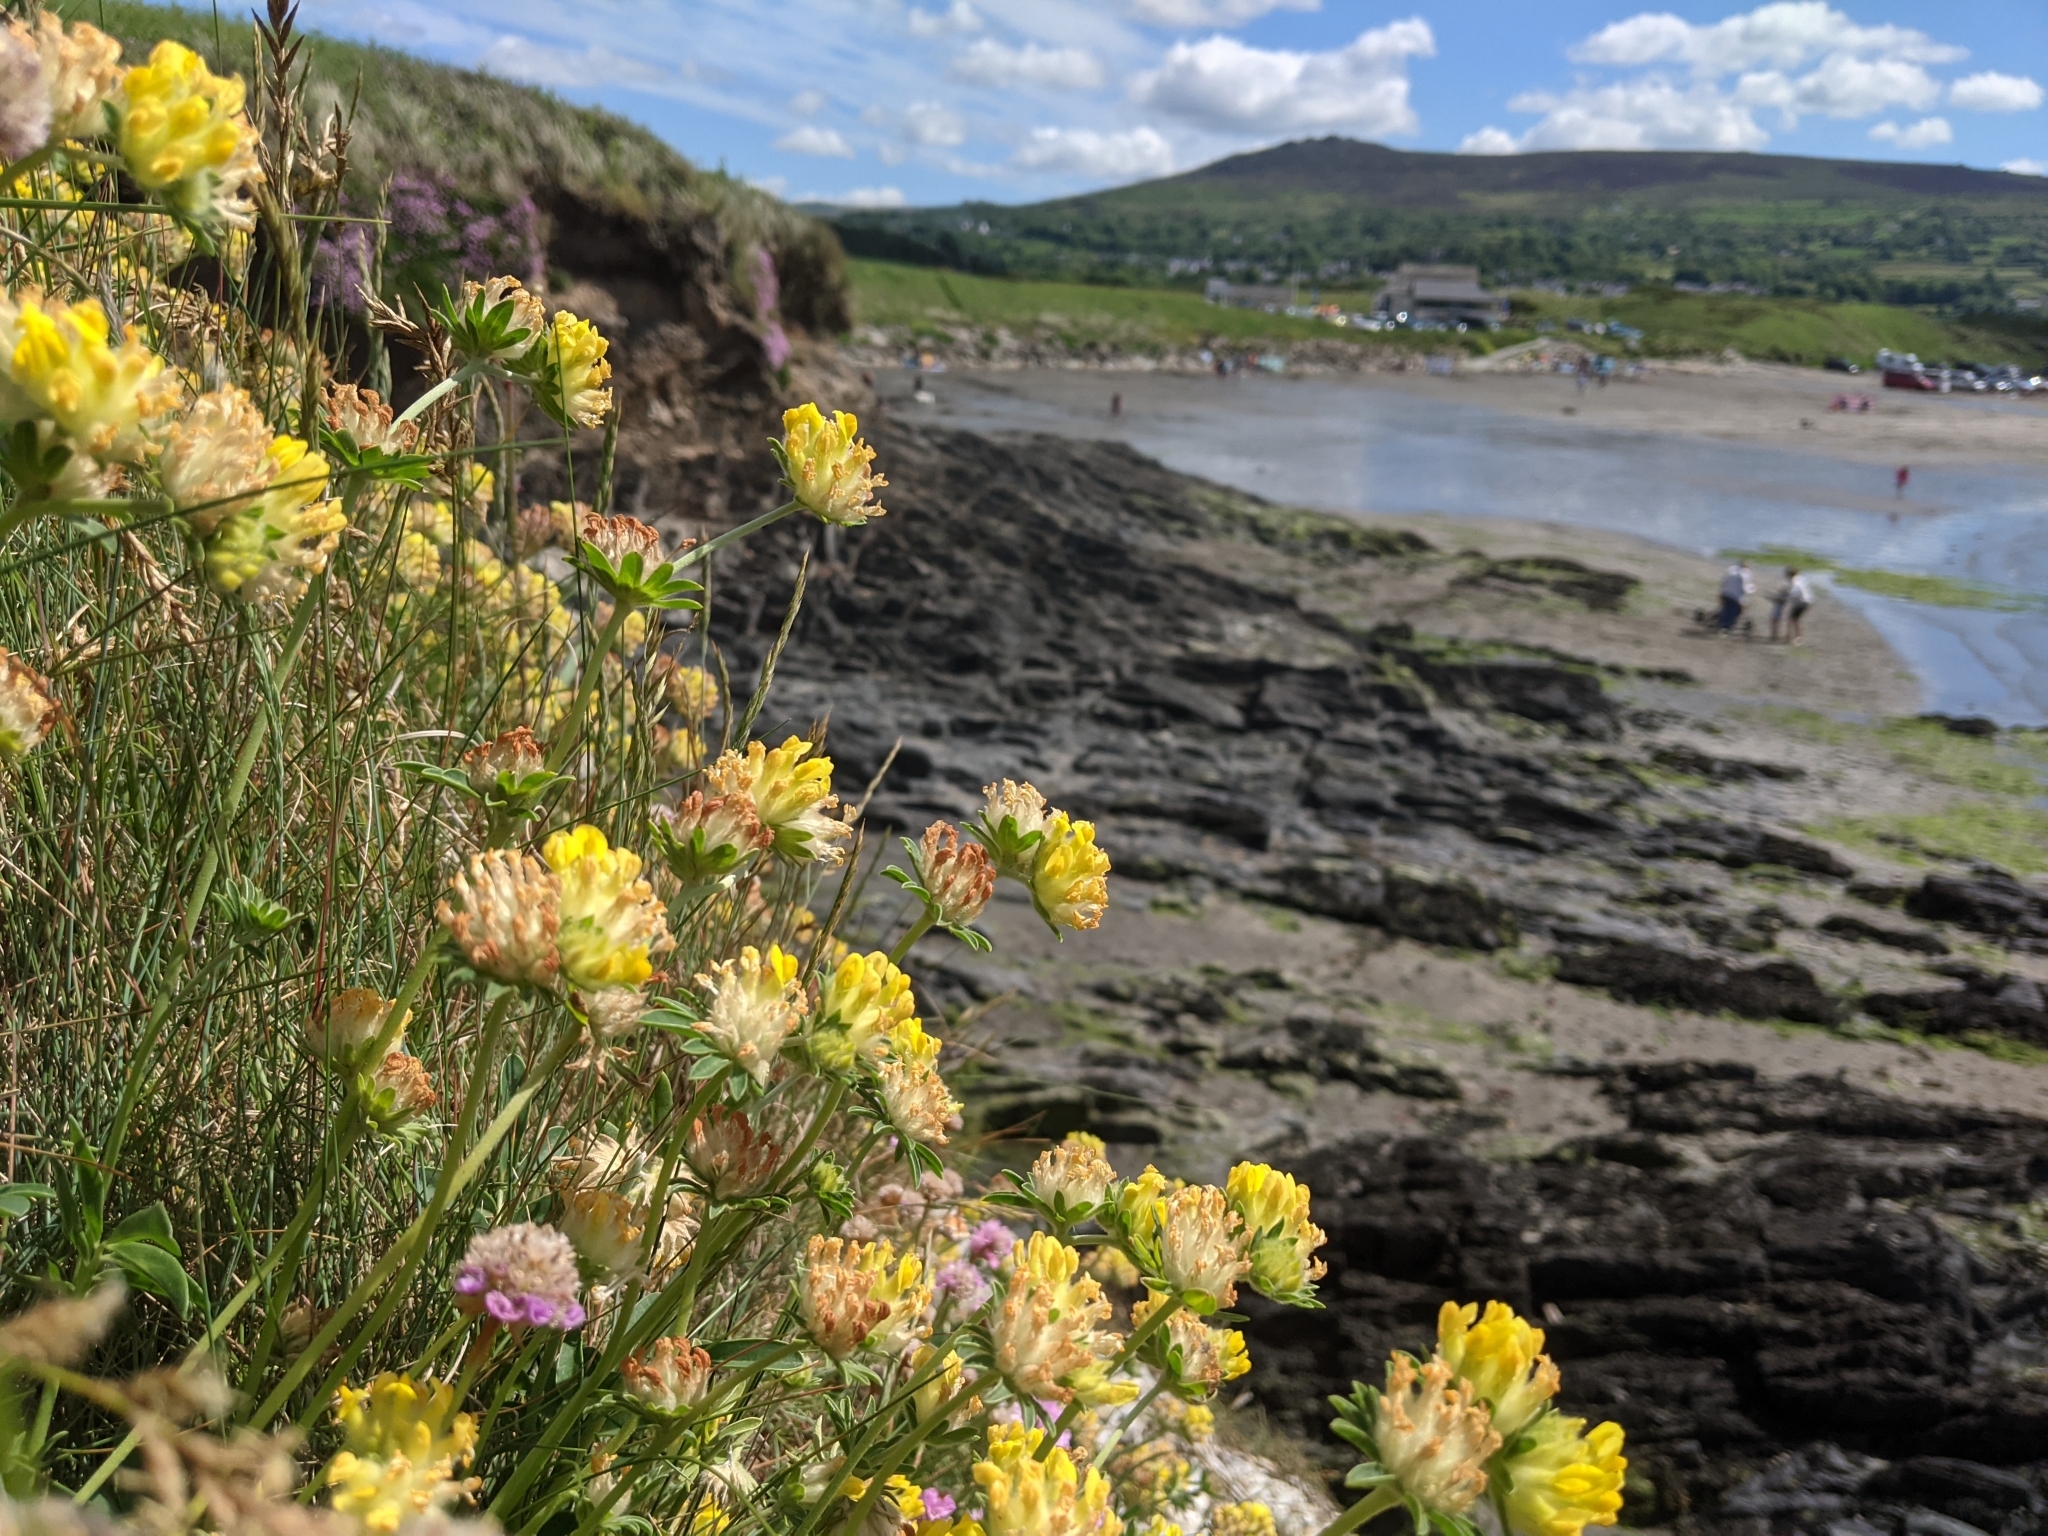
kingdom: Plantae
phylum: Tracheophyta
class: Magnoliopsida
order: Fabales
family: Fabaceae
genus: Anthyllis
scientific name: Anthyllis vulneraria
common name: Kidney vetch
